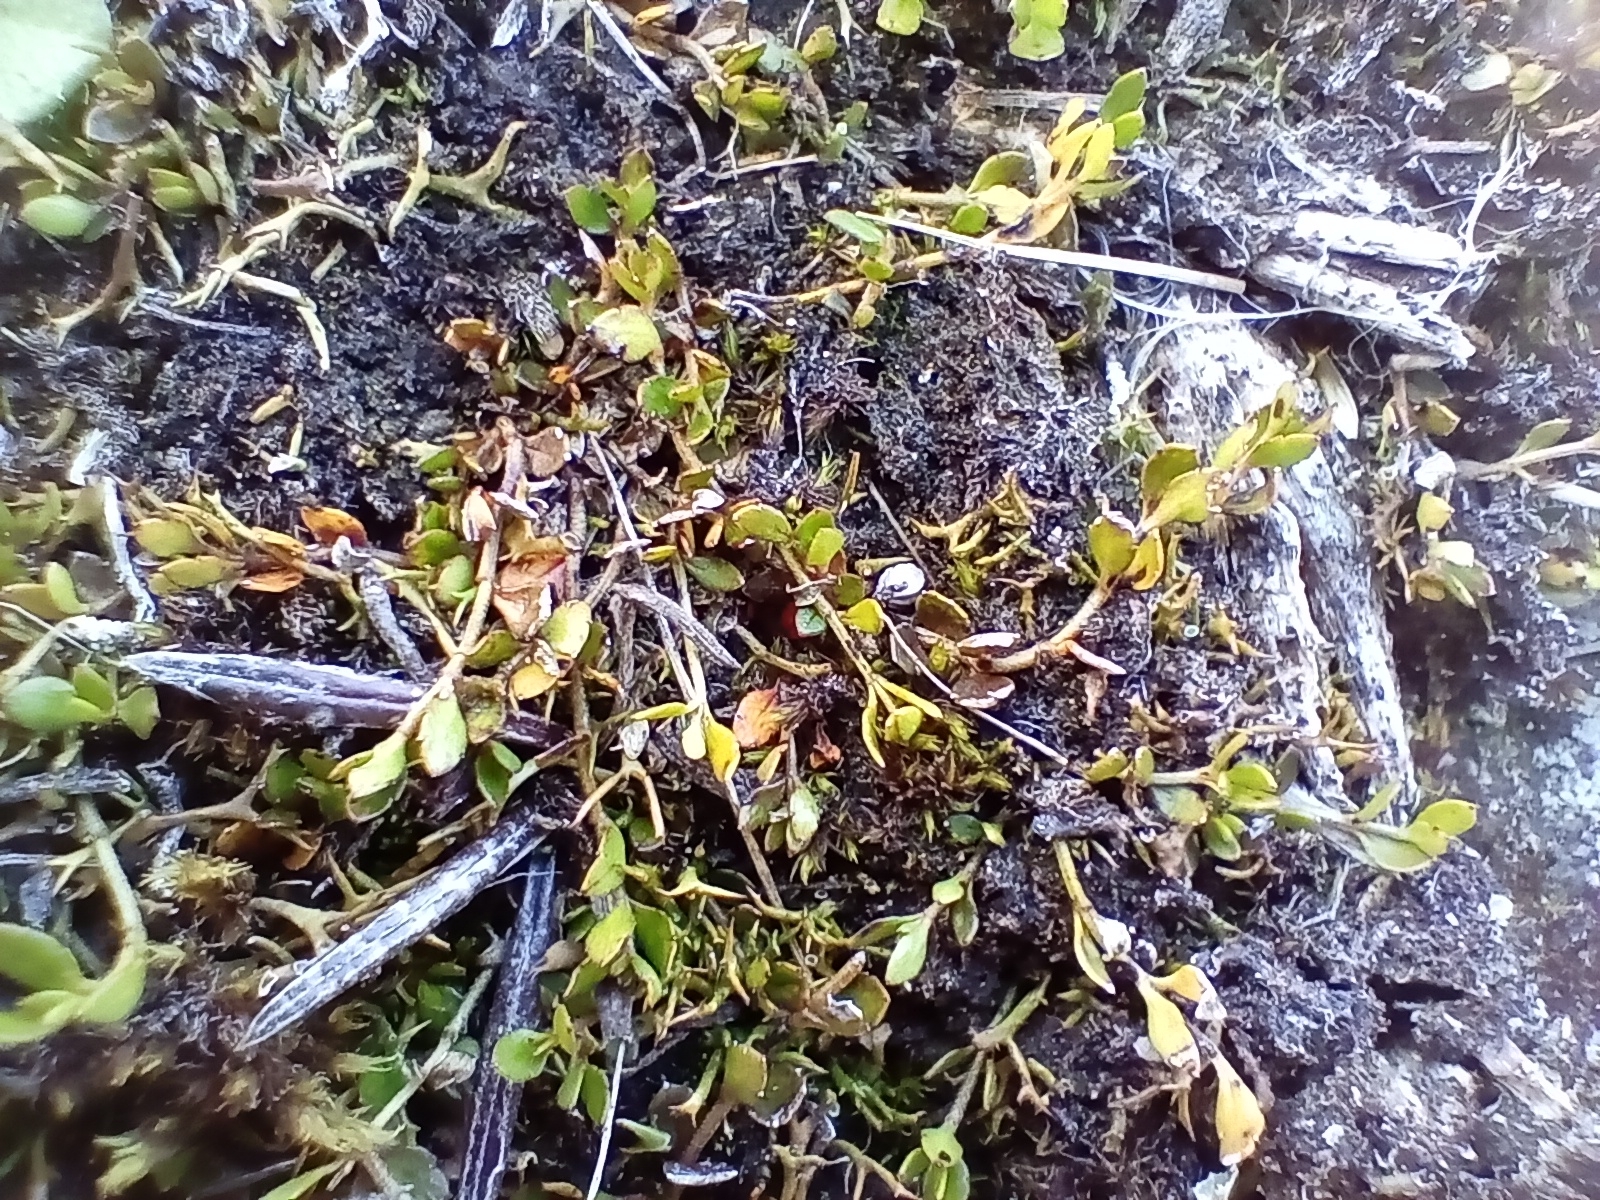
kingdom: Plantae
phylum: Tracheophyta
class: Magnoliopsida
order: Saxifragales
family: Haloragaceae
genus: Gonocarpus
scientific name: Gonocarpus micranthus
